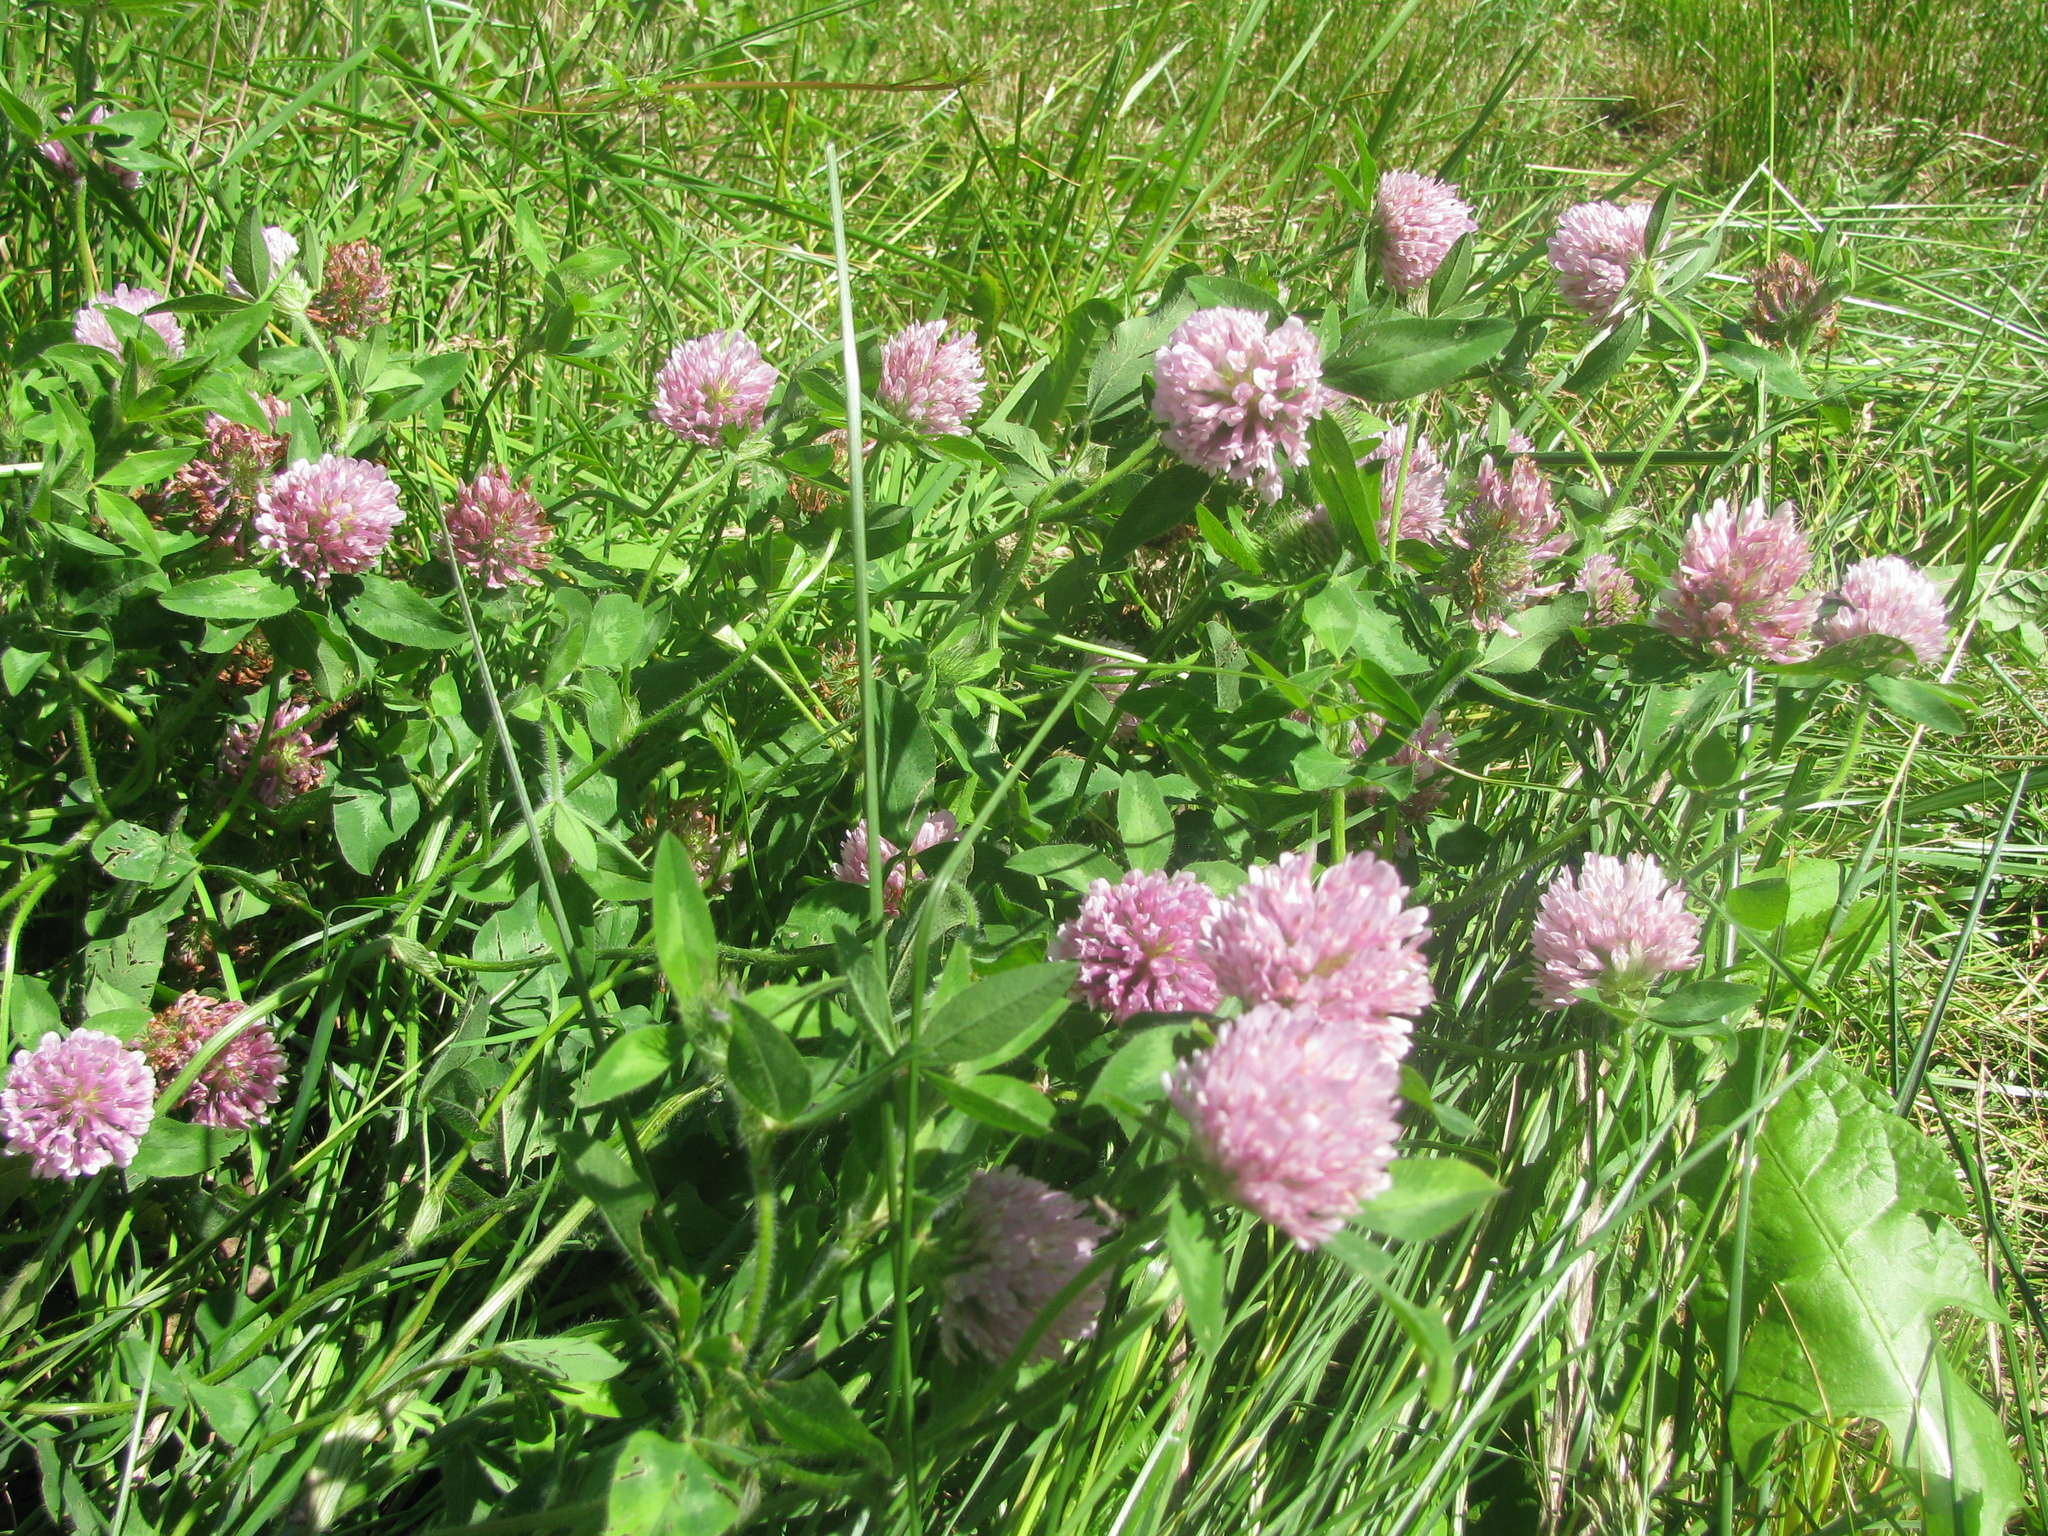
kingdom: Plantae
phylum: Tracheophyta
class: Magnoliopsida
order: Fabales
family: Fabaceae
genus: Trifolium
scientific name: Trifolium pratense
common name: Red clover
